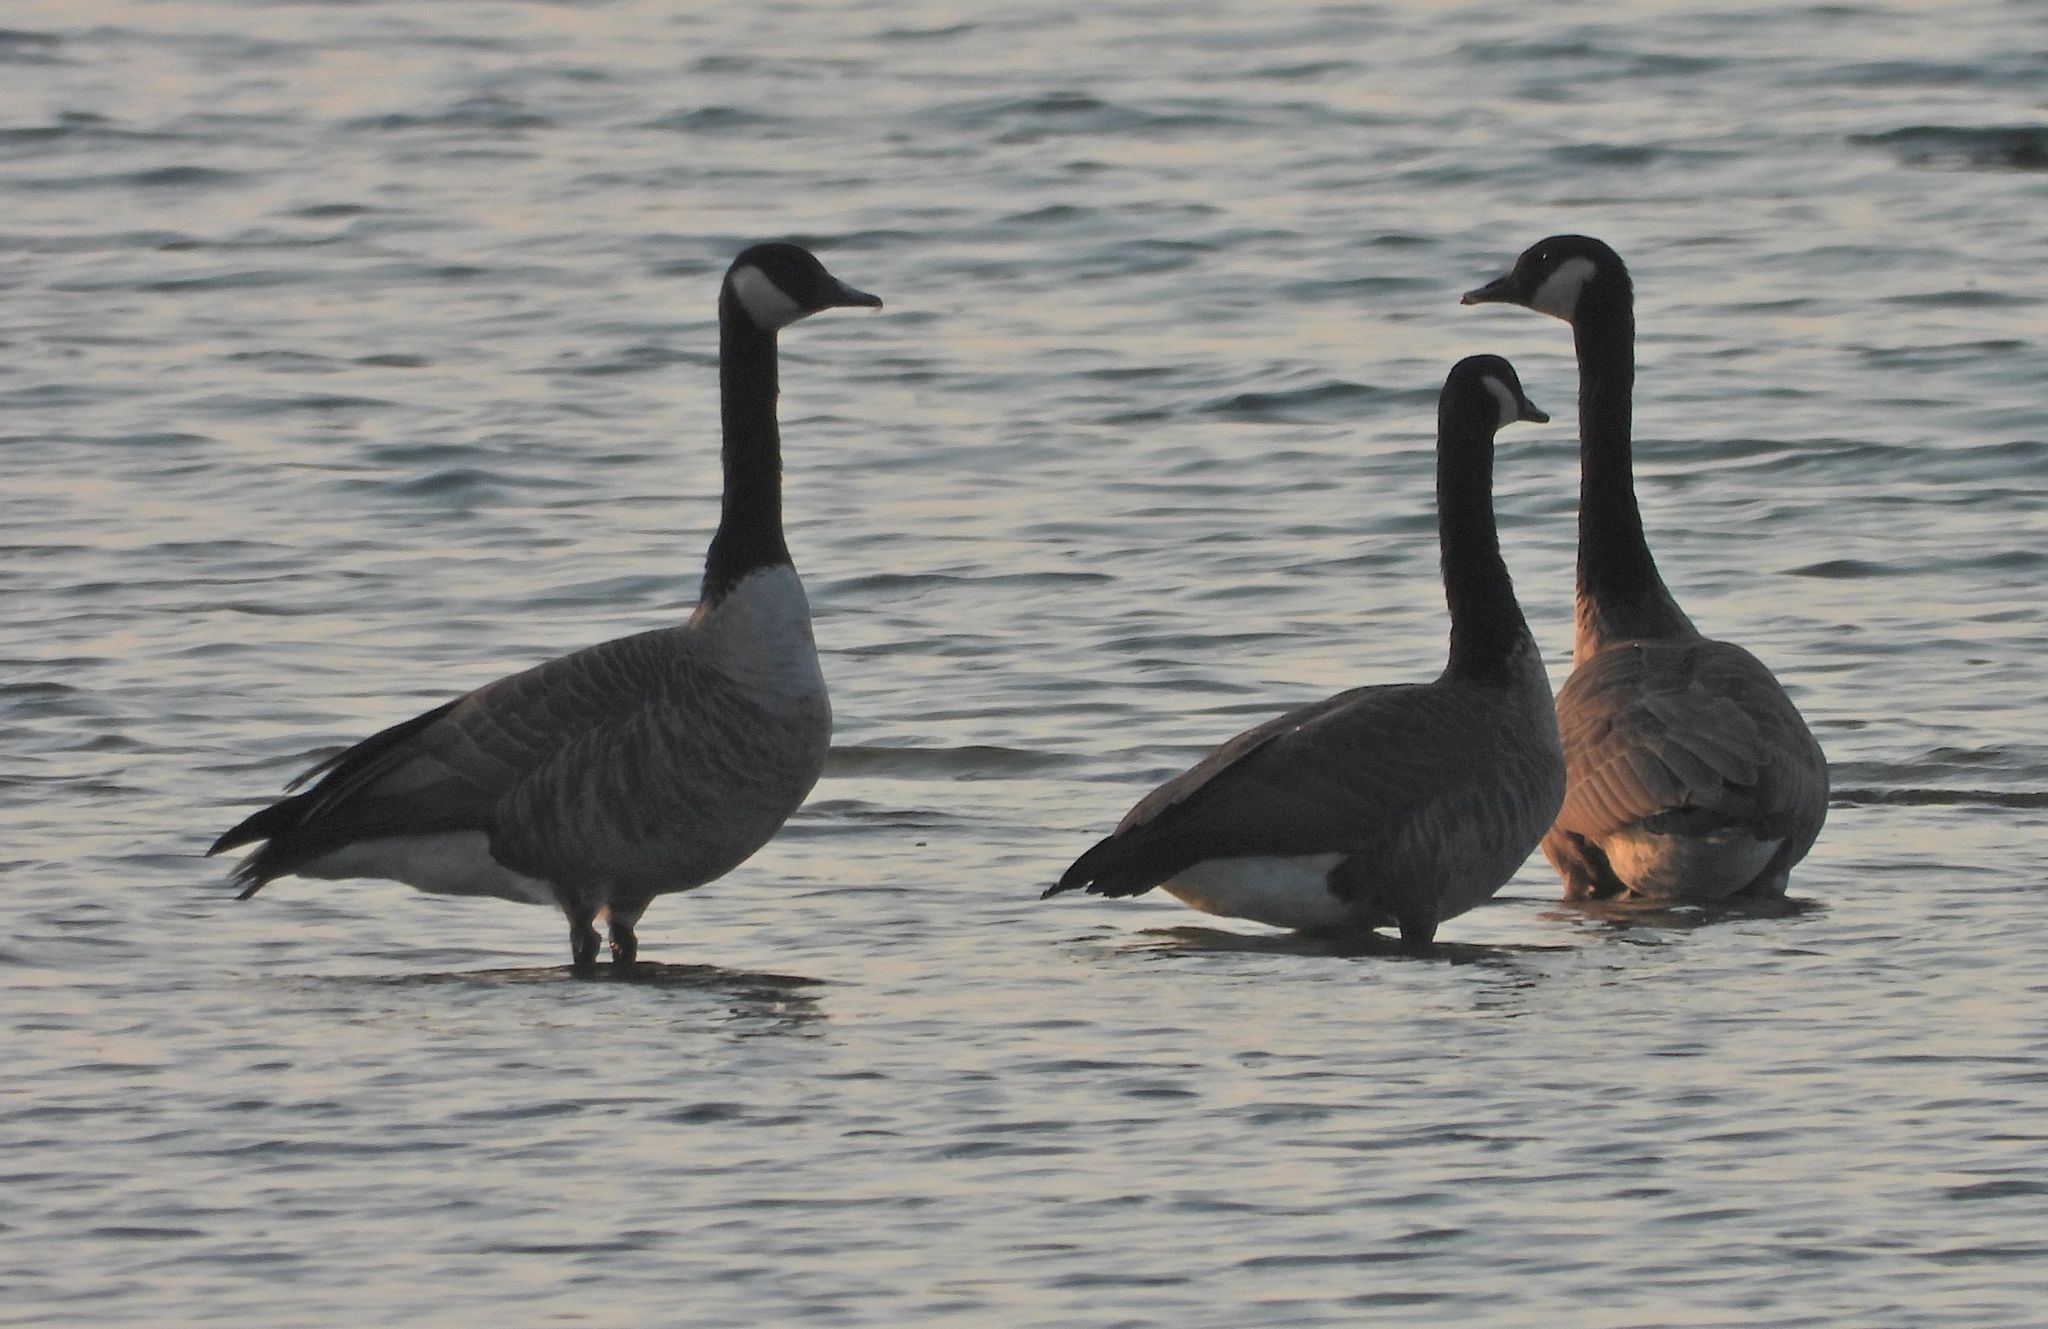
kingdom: Animalia
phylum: Chordata
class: Aves
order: Anseriformes
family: Anatidae
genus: Branta
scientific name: Branta canadensis
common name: Canada goose
